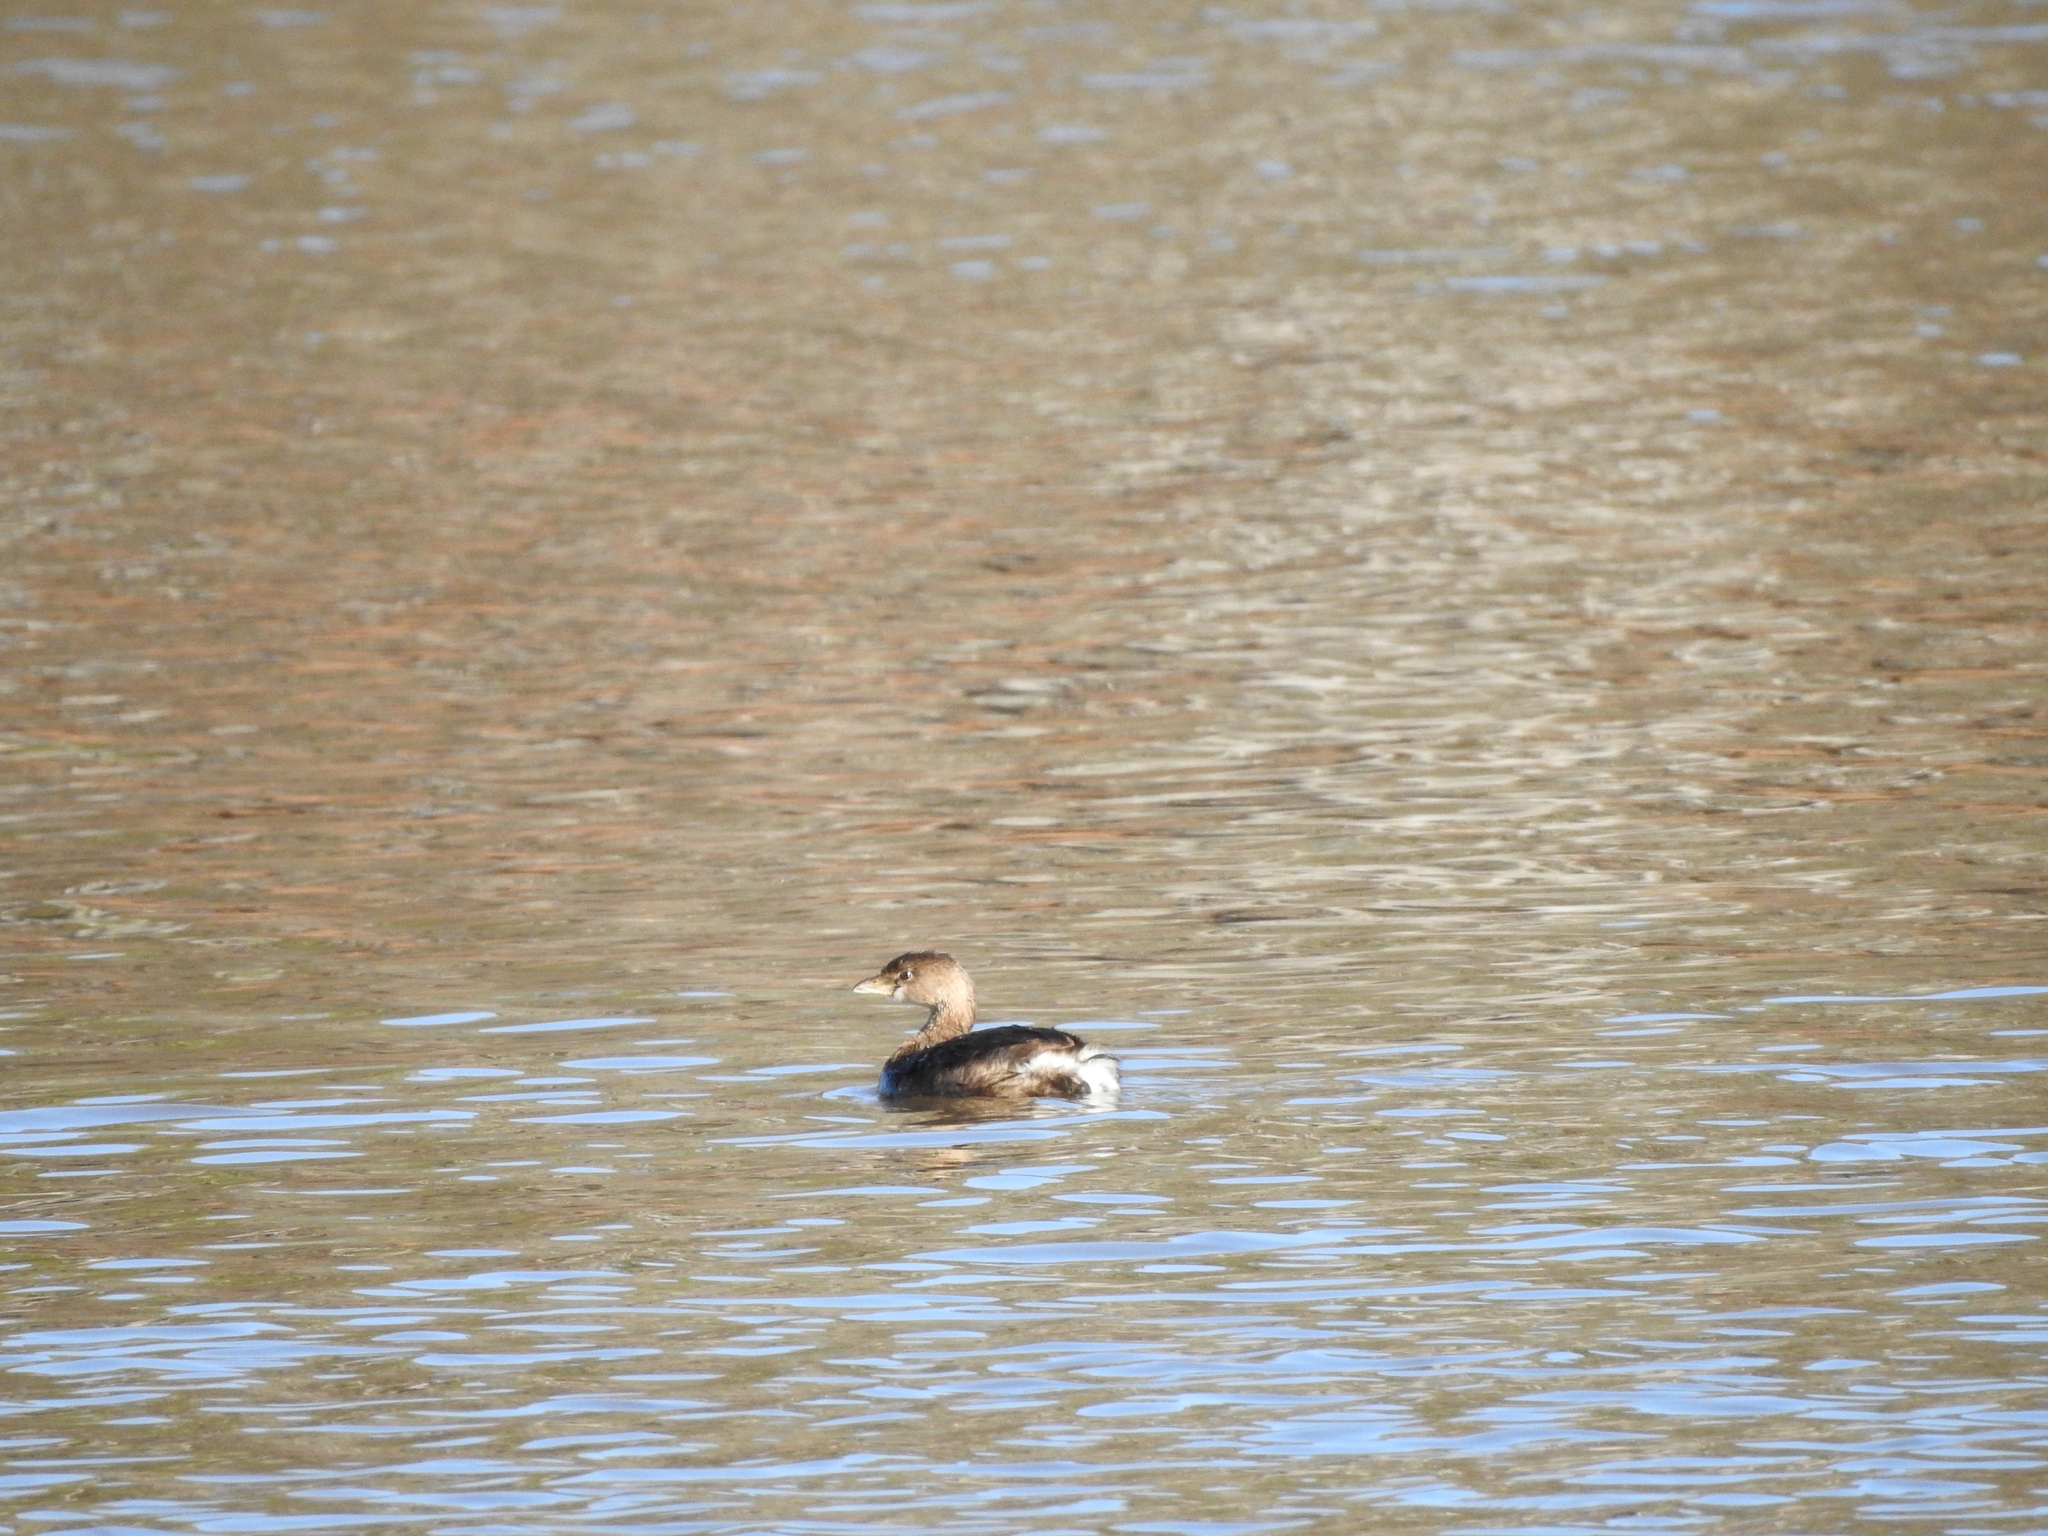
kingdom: Animalia
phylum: Chordata
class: Aves
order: Podicipediformes
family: Podicipedidae
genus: Podilymbus
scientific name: Podilymbus podiceps
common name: Pied-billed grebe
